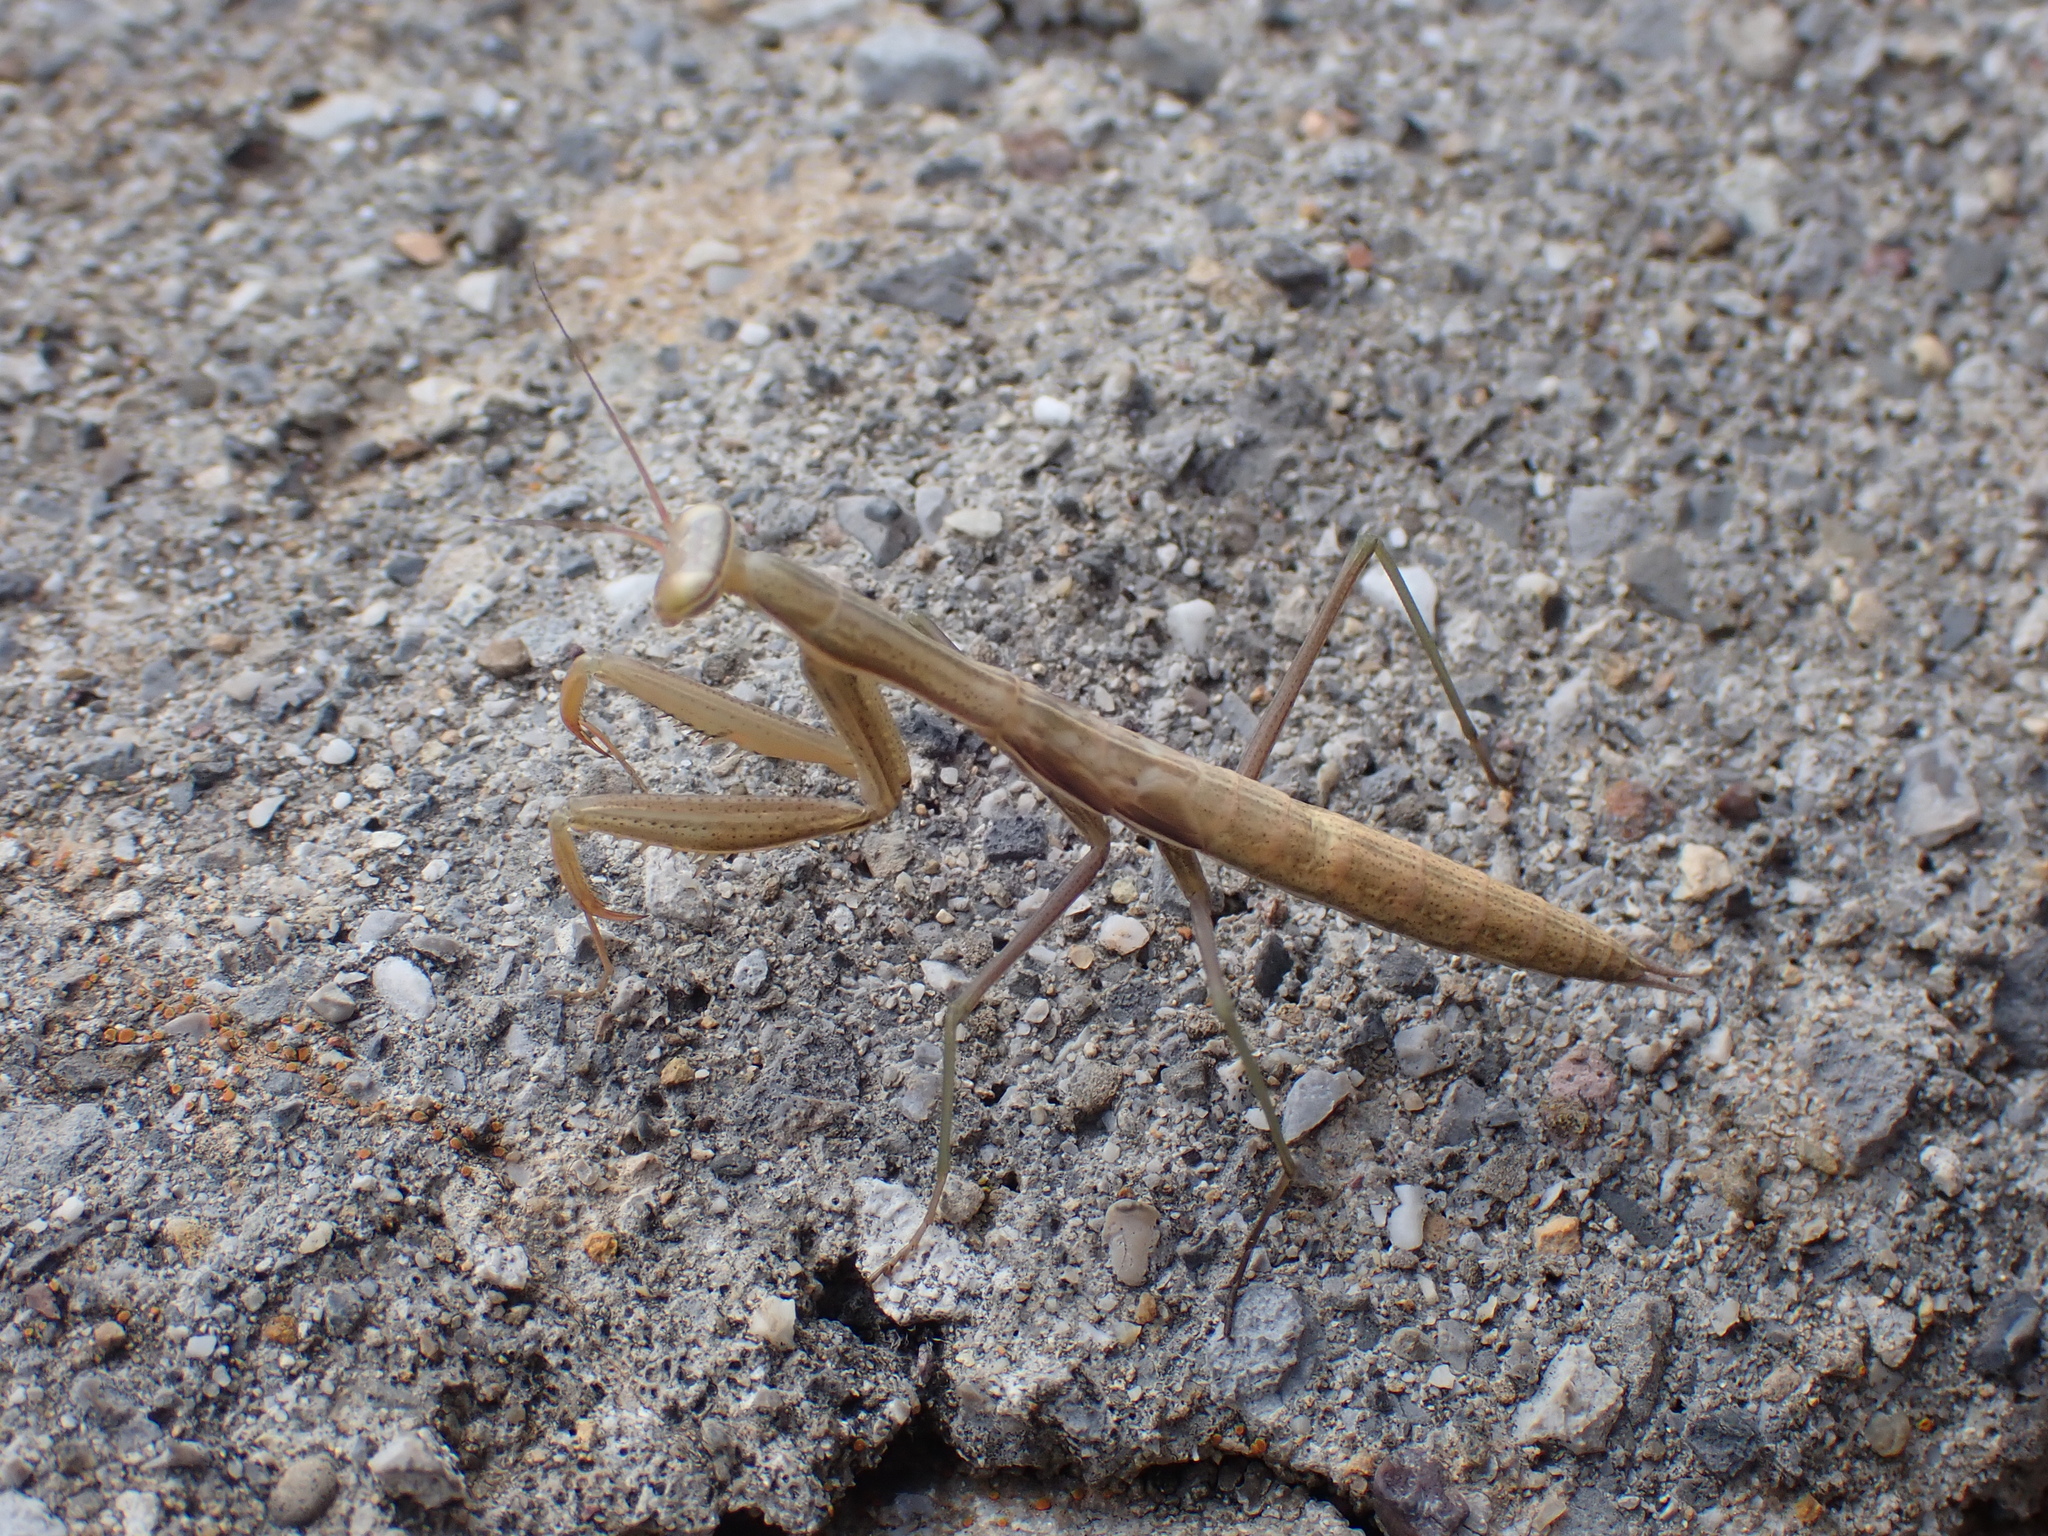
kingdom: Animalia
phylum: Arthropoda
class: Insecta
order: Mantodea
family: Mantidae
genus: Mantis
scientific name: Mantis religiosa
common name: Praying mantis
